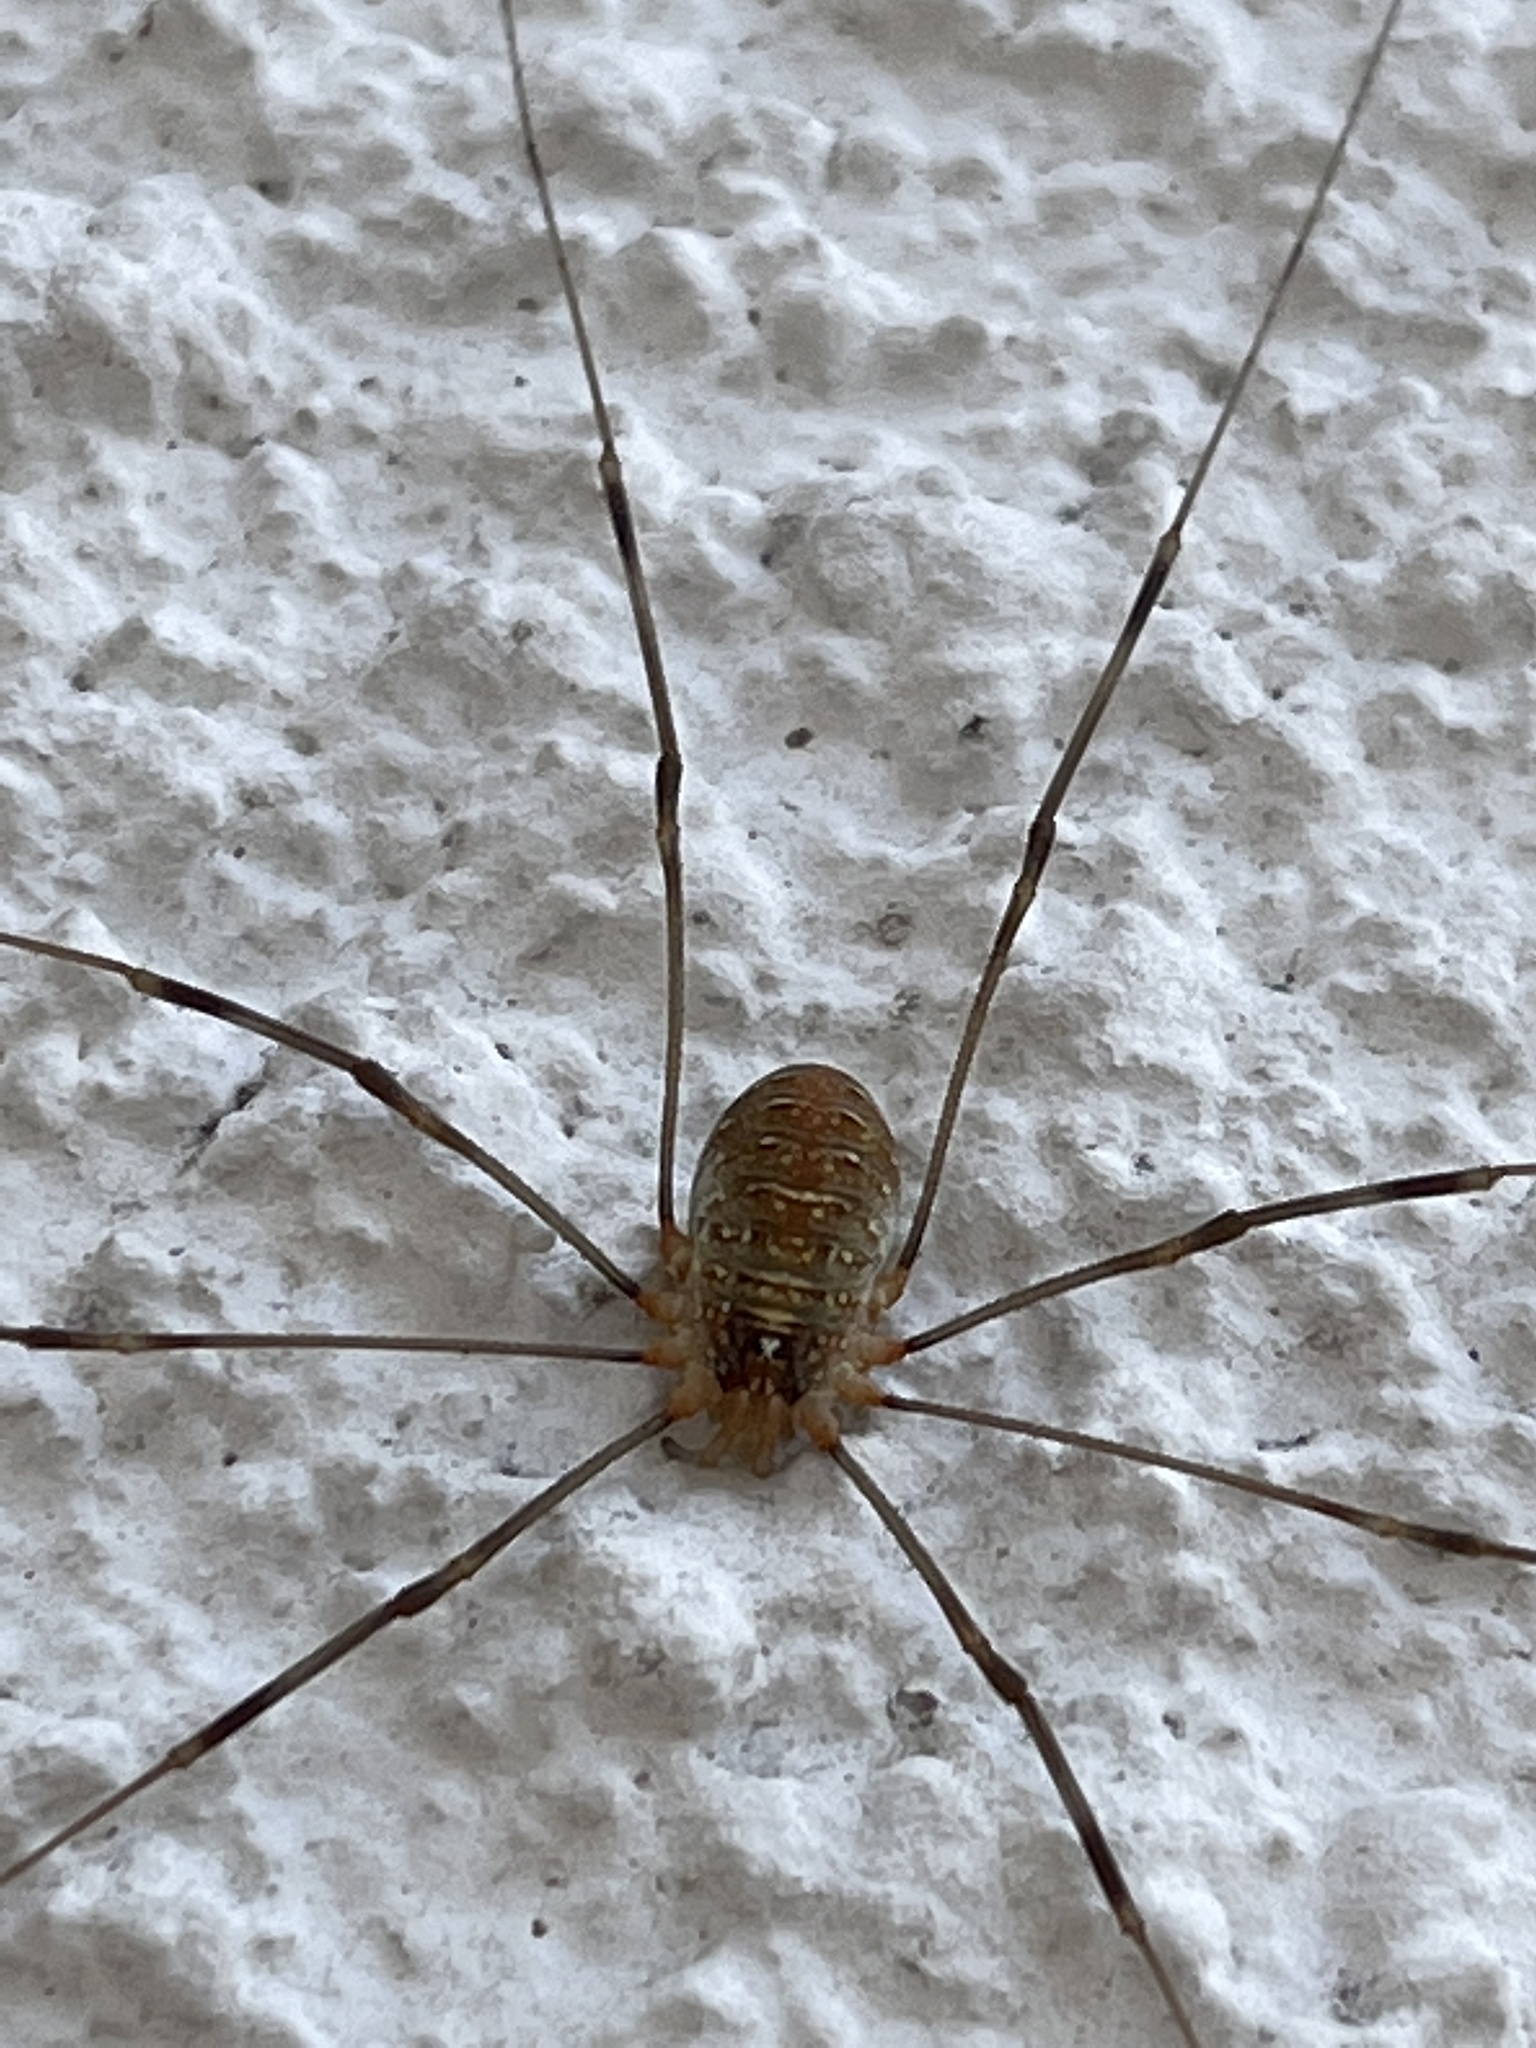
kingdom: Animalia
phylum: Arthropoda
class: Arachnida
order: Opiliones
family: Phalangiidae
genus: Opilio
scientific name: Opilio canestrinii
